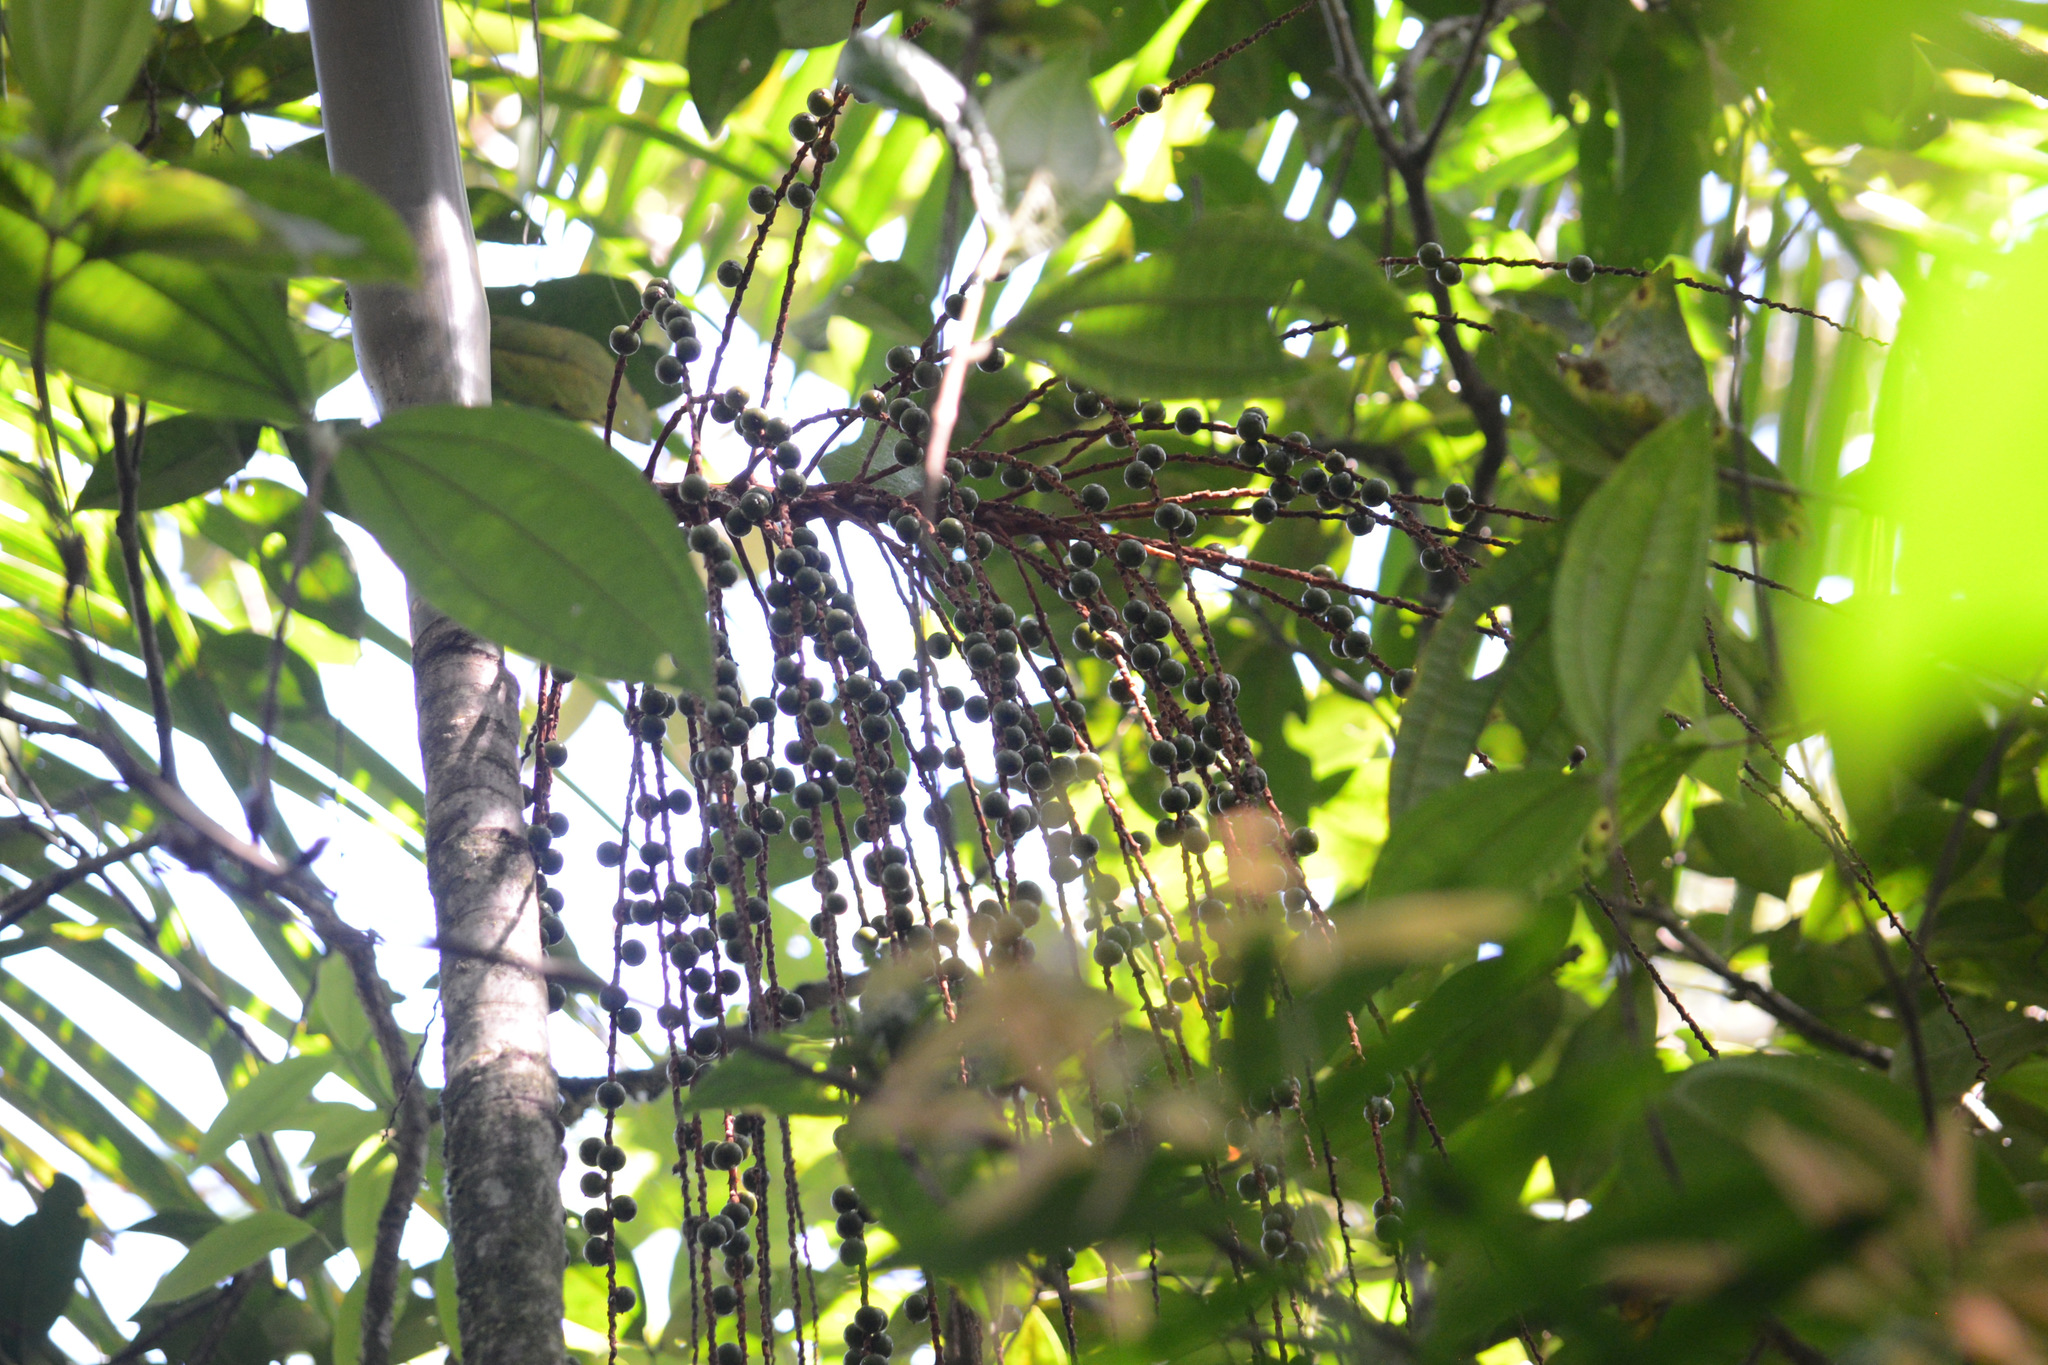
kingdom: Plantae
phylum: Tracheophyta
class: Liliopsida
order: Arecales
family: Arecaceae
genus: Euterpe
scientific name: Euterpe edulis
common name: Assai palm
